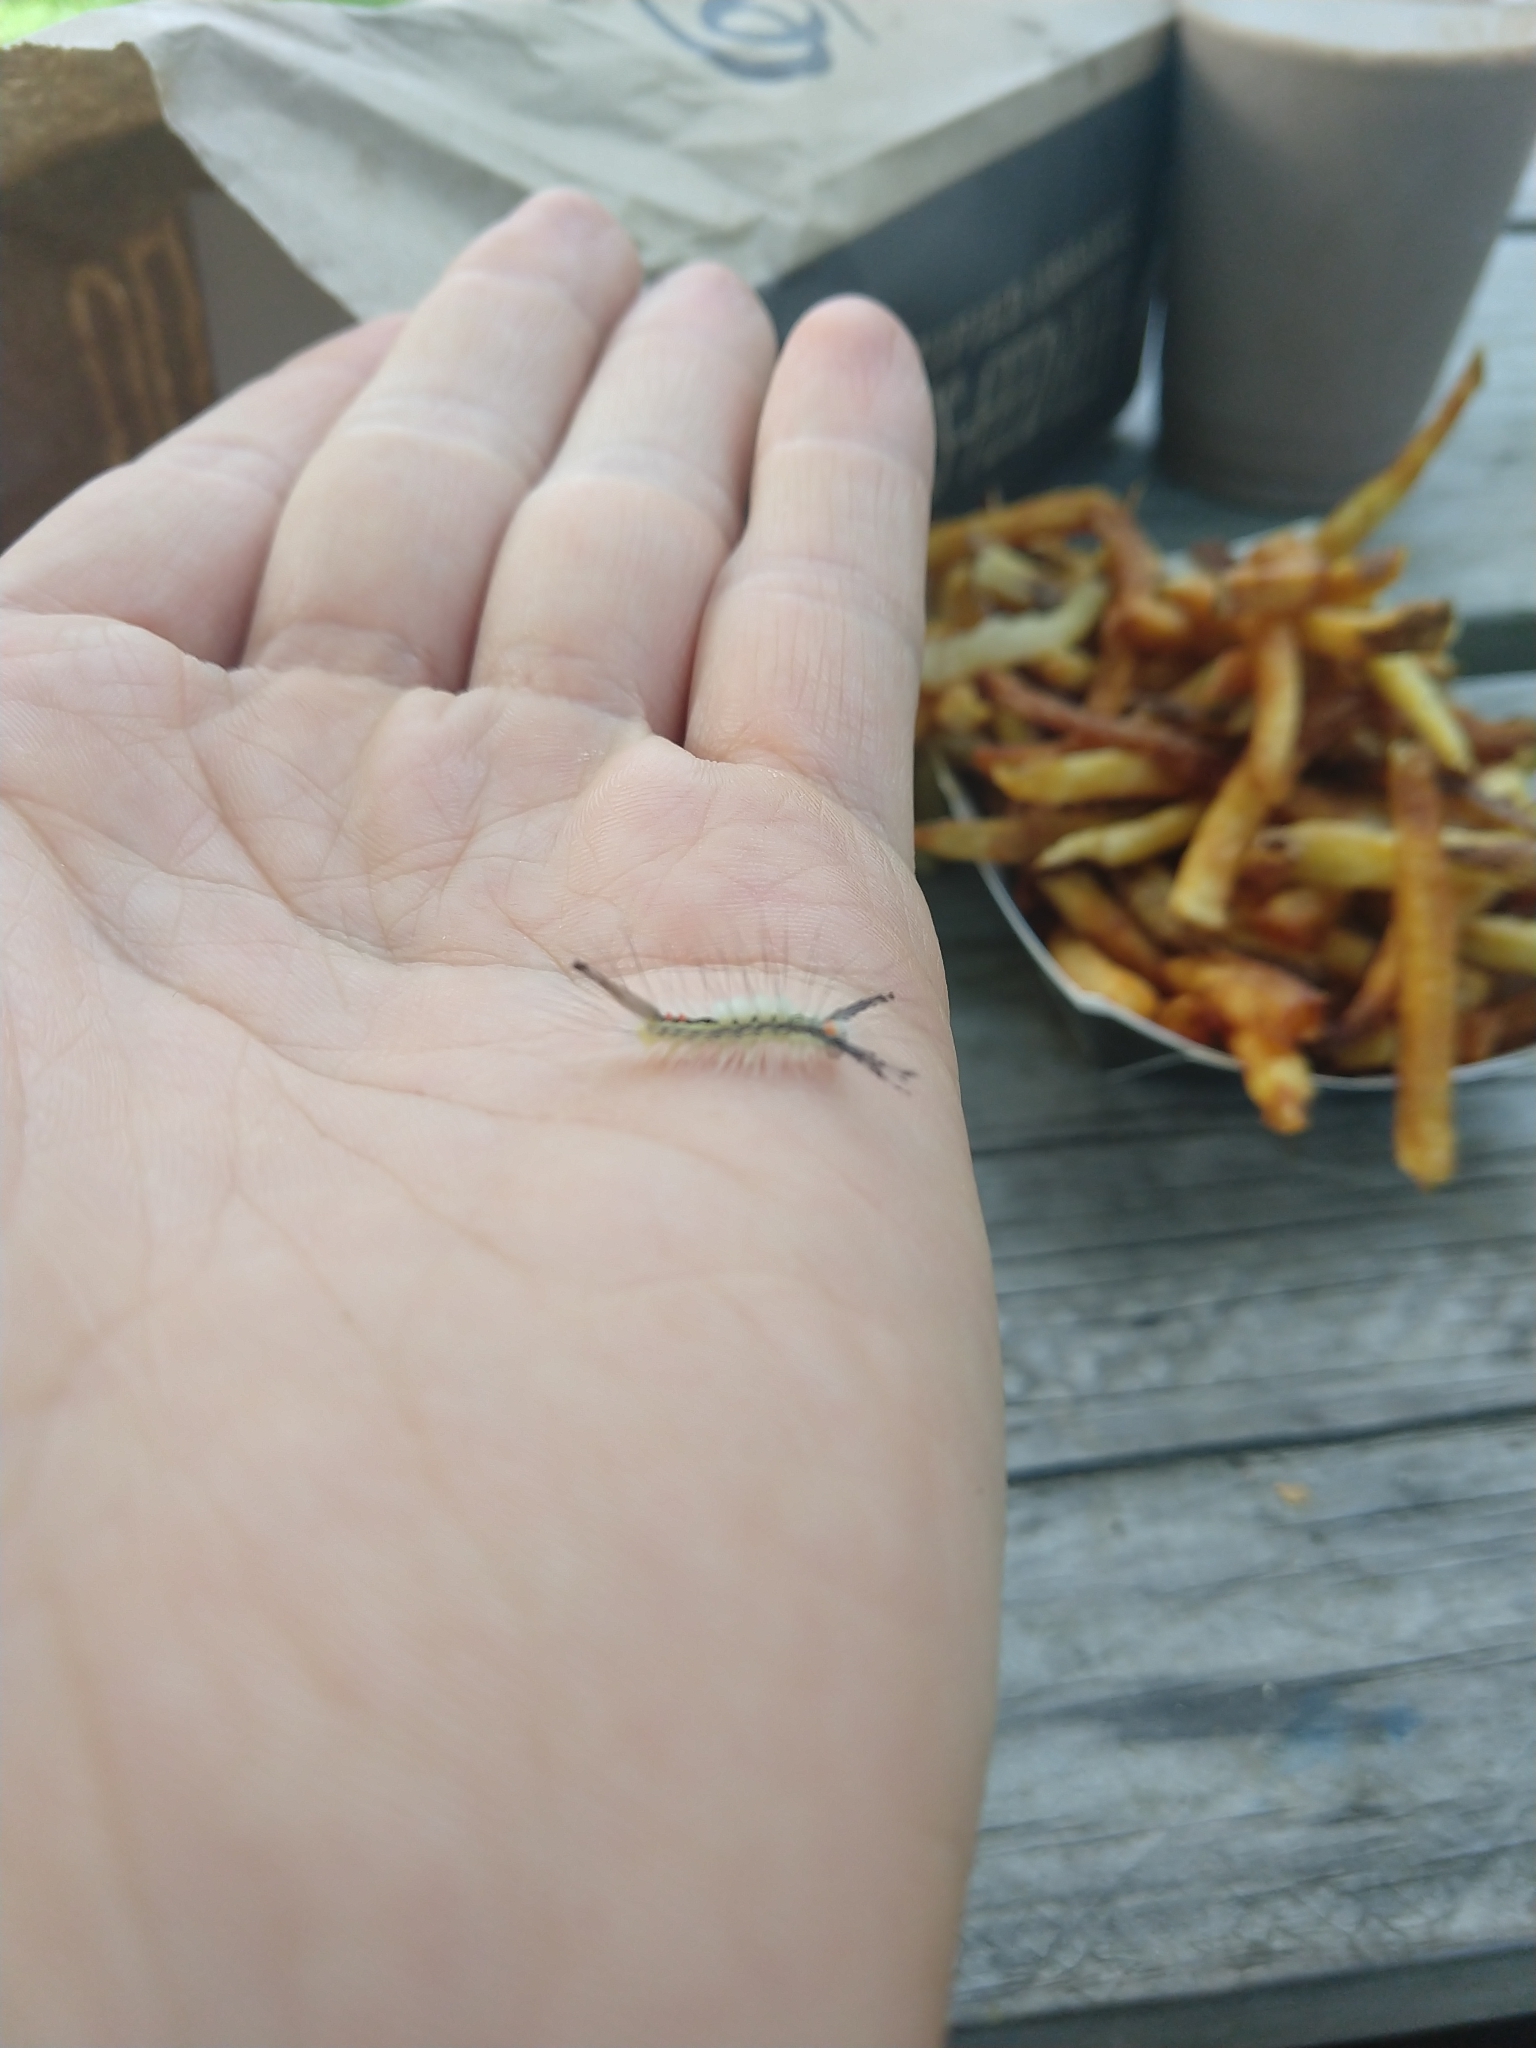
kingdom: Animalia
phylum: Arthropoda
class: Insecta
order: Lepidoptera
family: Erebidae
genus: Orgyia
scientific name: Orgyia leucostigma
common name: White-marked tussock moth
